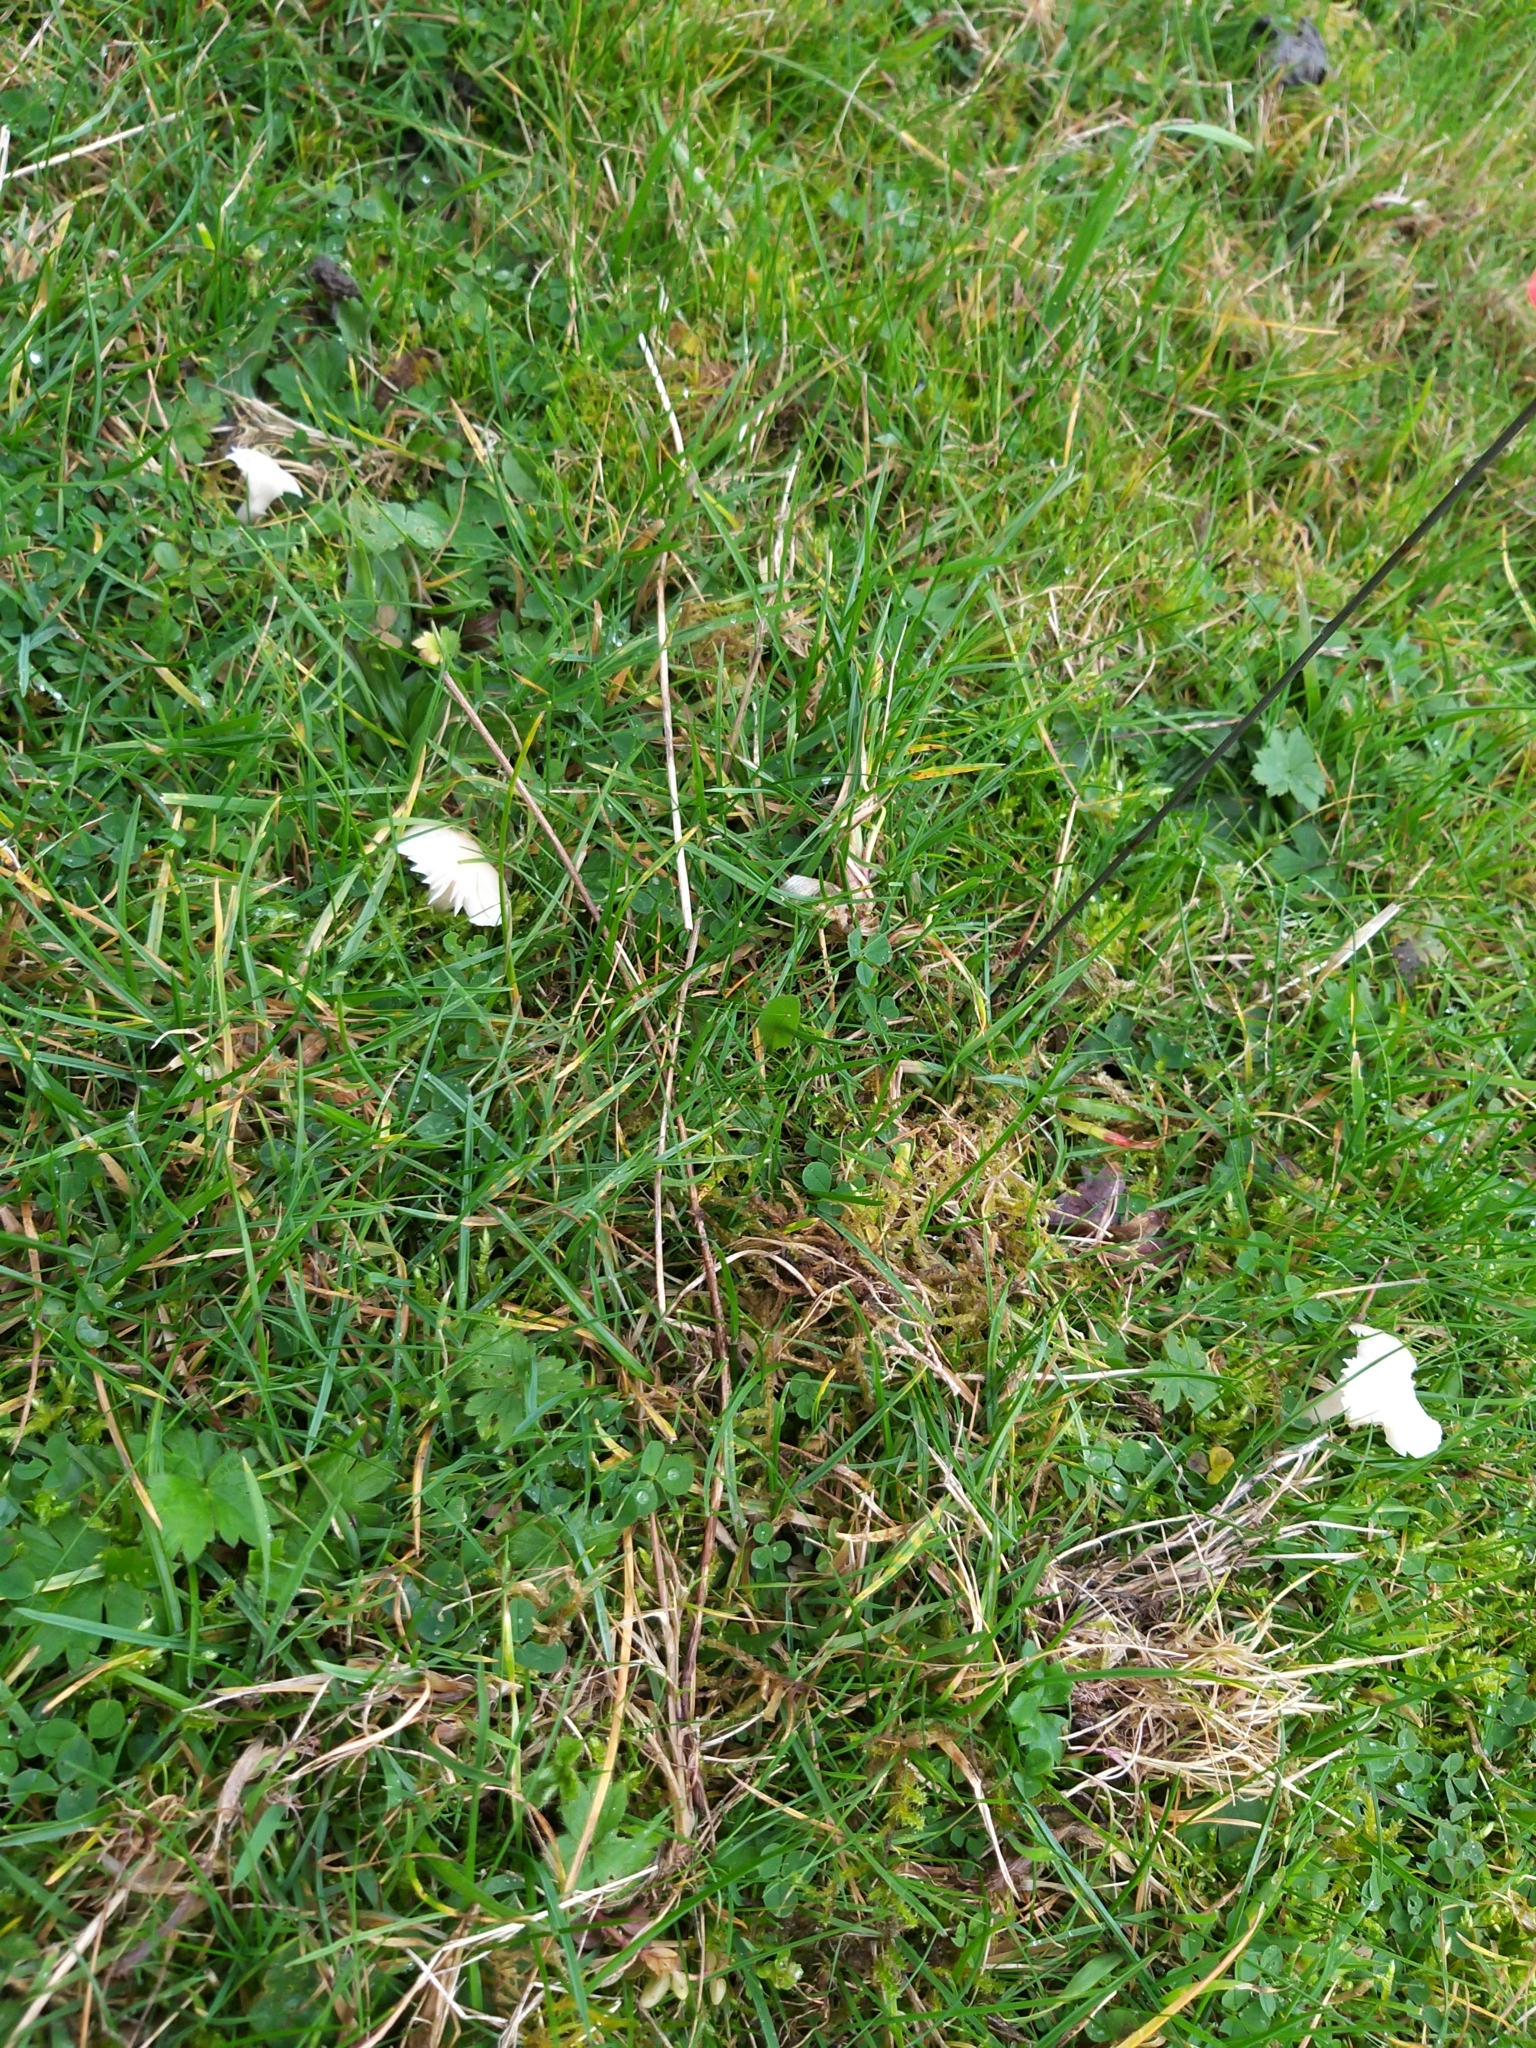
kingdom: Fungi
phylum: Basidiomycota
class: Agaricomycetes
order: Agaricales
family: Hygrophoraceae
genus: Cuphophyllus
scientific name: Cuphophyllus virgineus
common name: Snowy waxcap
